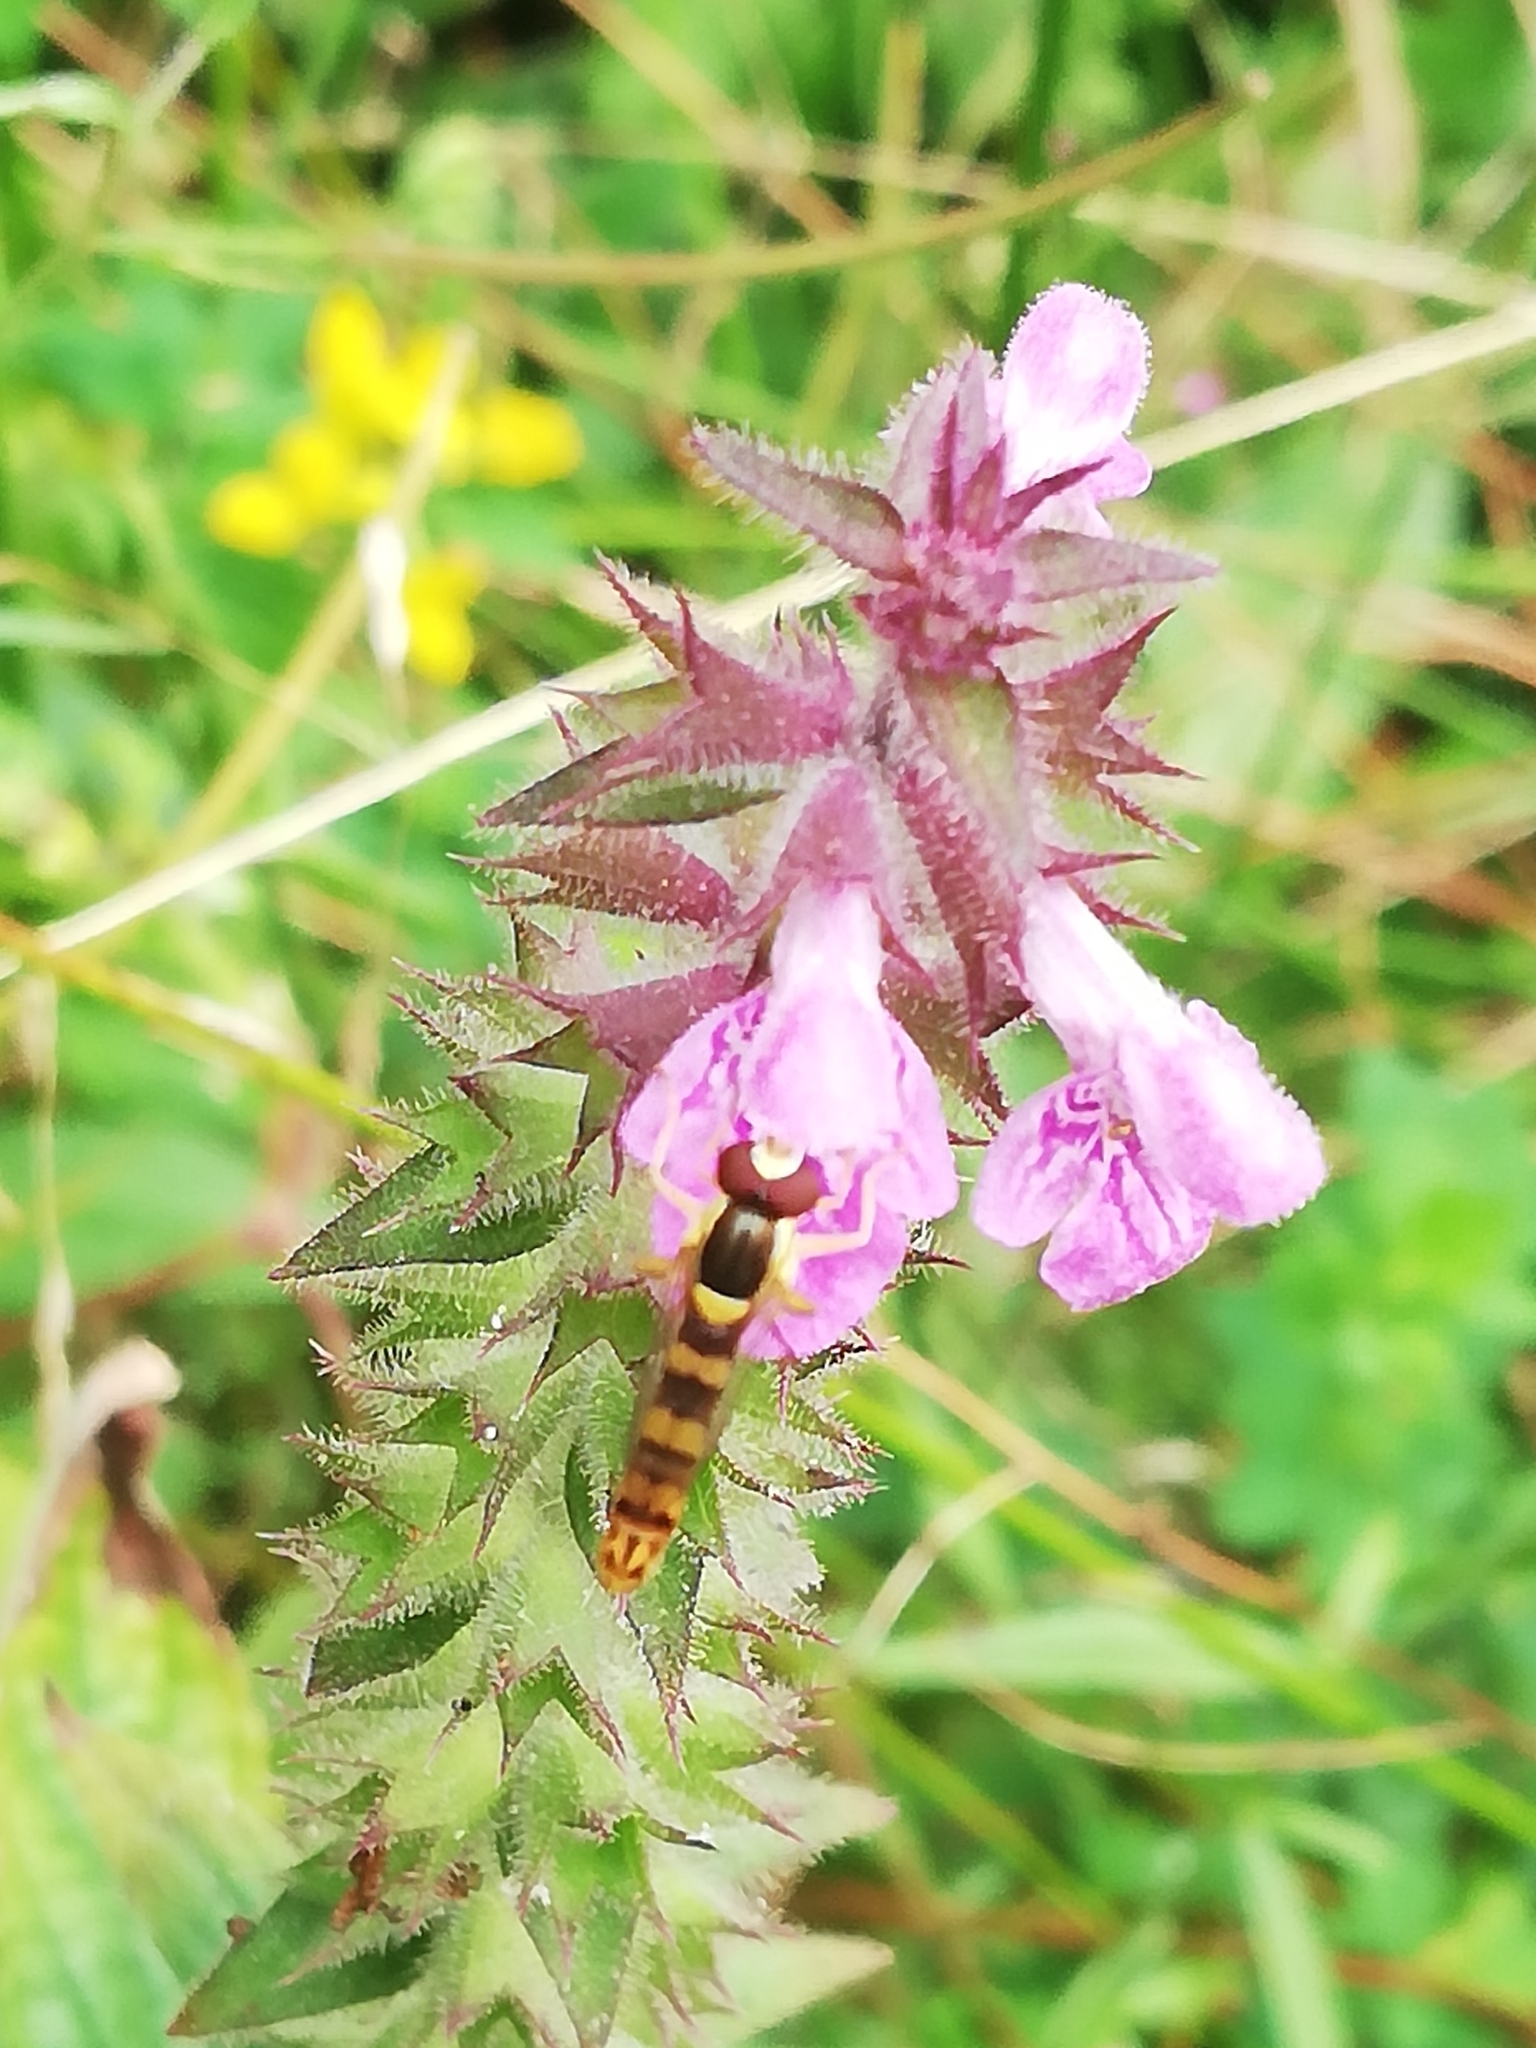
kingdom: Animalia
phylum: Arthropoda
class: Insecta
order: Diptera
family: Syrphidae
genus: Sphaerophoria
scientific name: Sphaerophoria scripta
